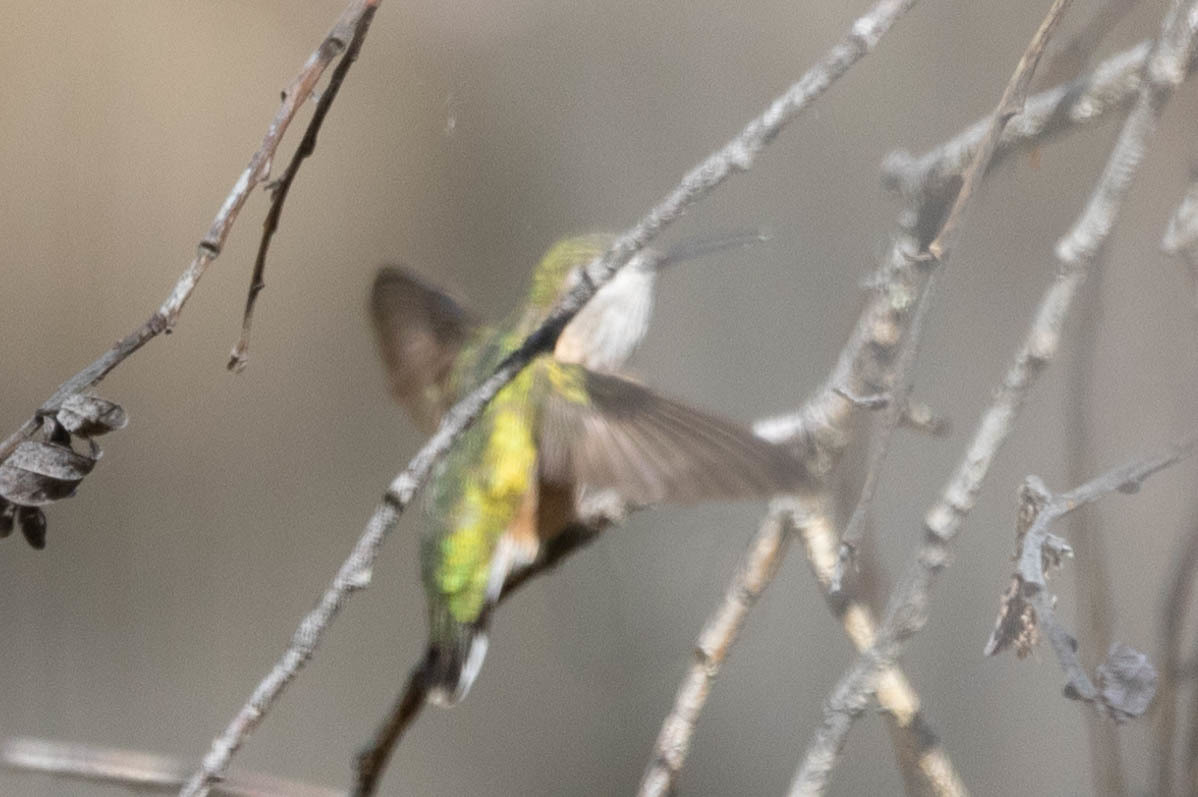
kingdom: Animalia
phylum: Chordata
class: Aves
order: Apodiformes
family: Trochilidae
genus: Selasphorus
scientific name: Selasphorus calliope
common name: Calliope hummingbird
